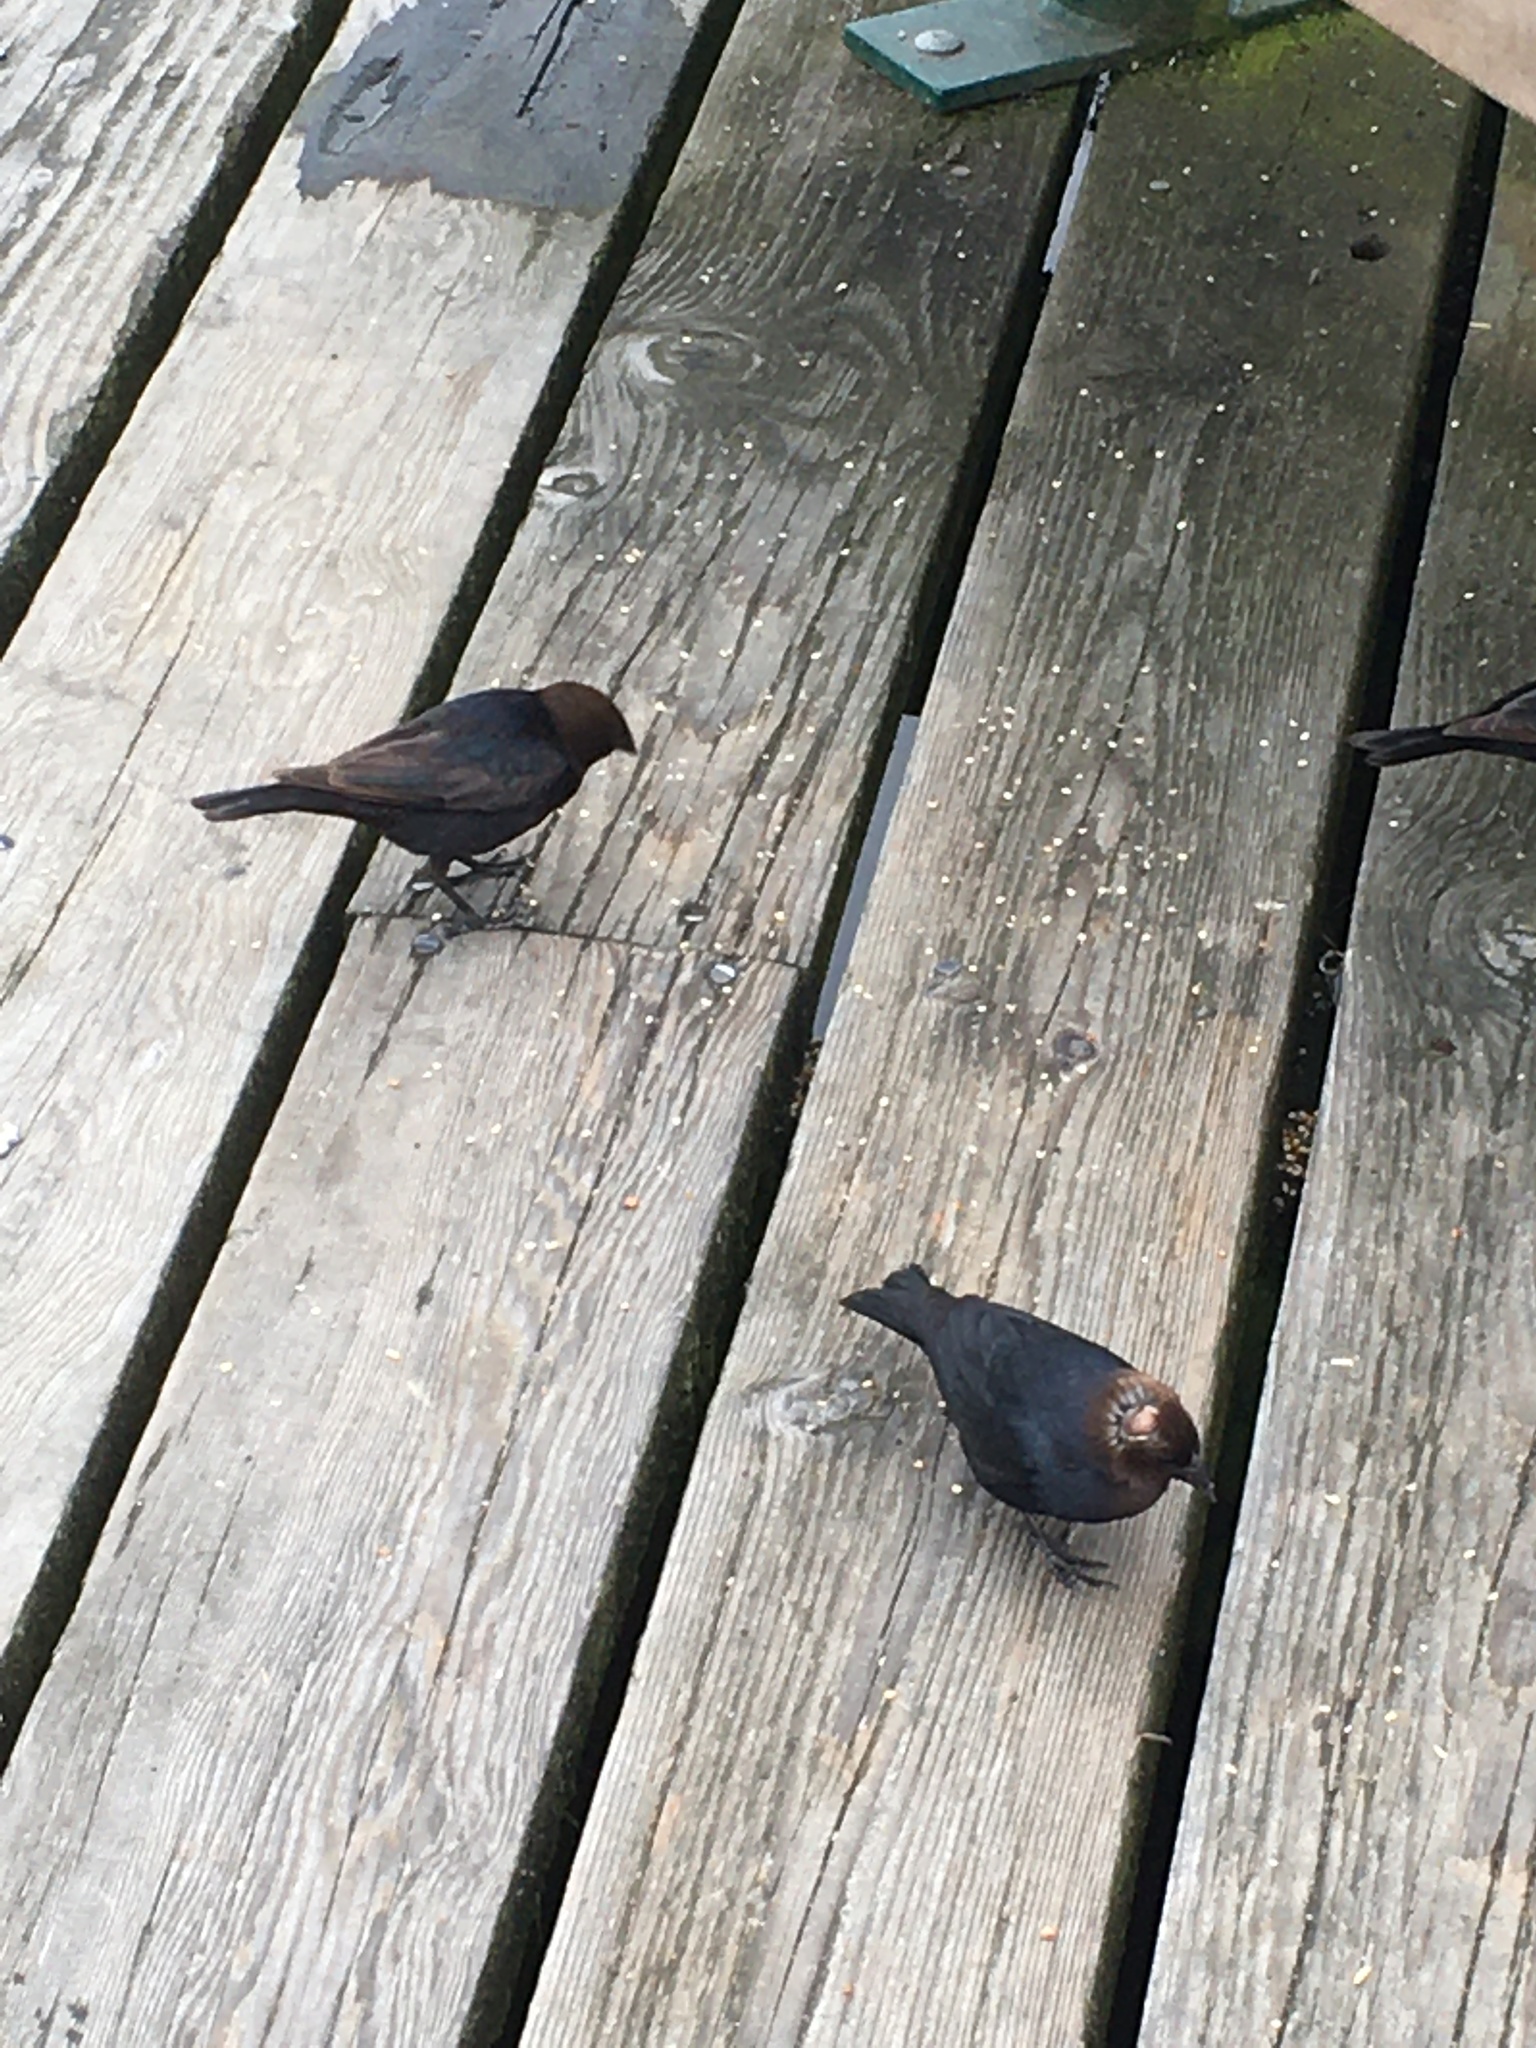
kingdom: Animalia
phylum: Chordata
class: Aves
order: Passeriformes
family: Icteridae
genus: Molothrus
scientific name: Molothrus ater
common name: Brown-headed cowbird
